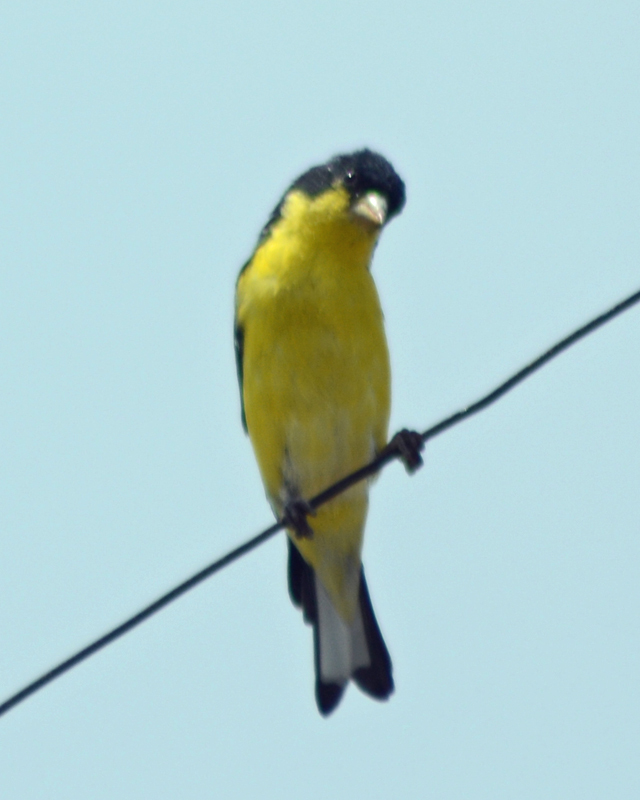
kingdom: Animalia
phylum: Chordata
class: Aves
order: Passeriformes
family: Fringillidae
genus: Spinus
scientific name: Spinus psaltria
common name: Lesser goldfinch
